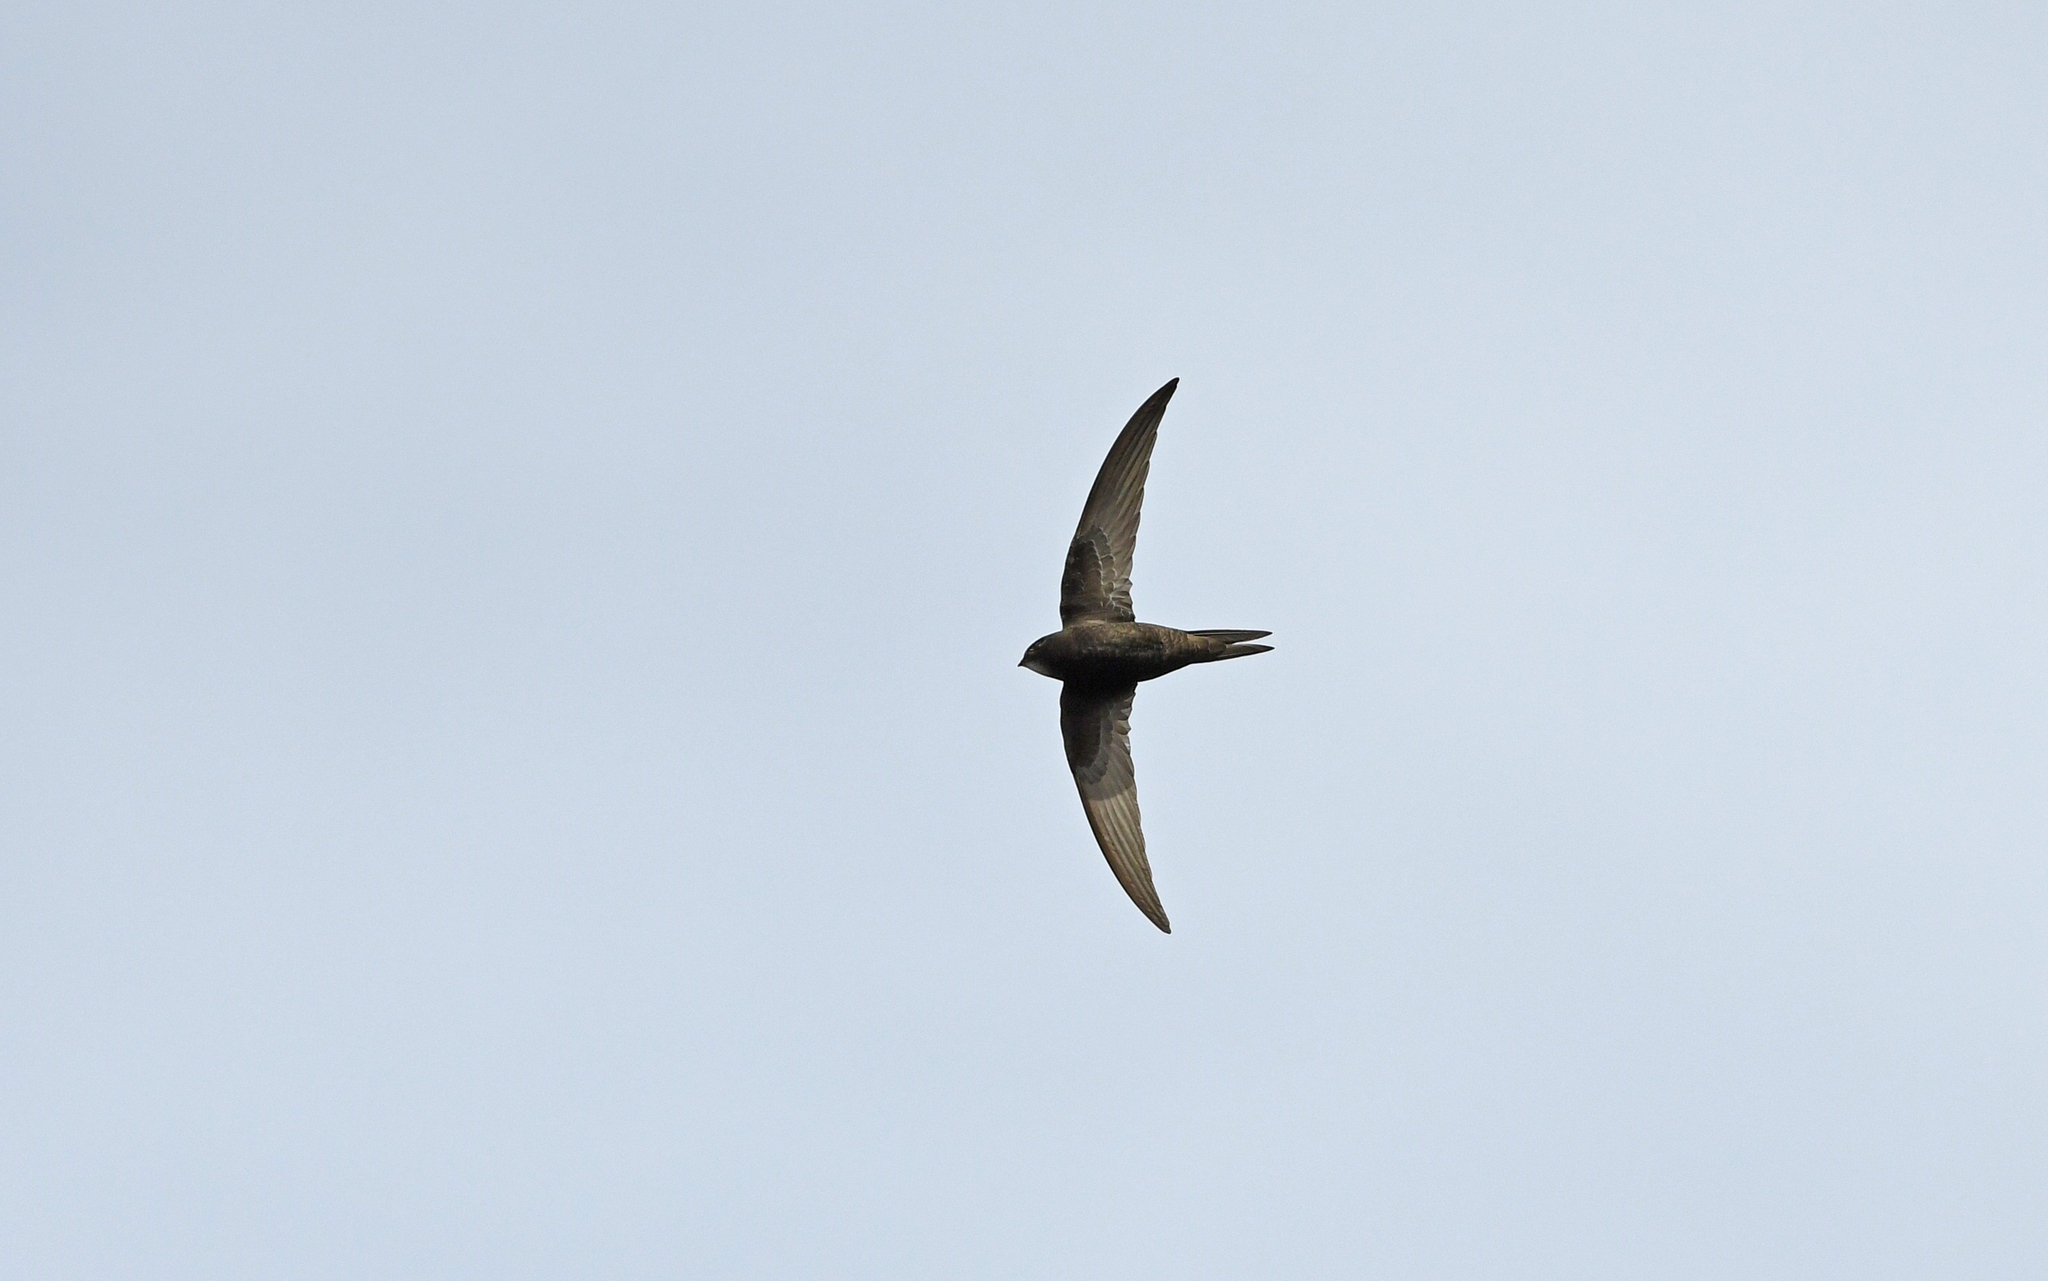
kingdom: Animalia
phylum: Chordata
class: Aves
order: Apodiformes
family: Apodidae
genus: Apus
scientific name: Apus apus
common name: Common swift
